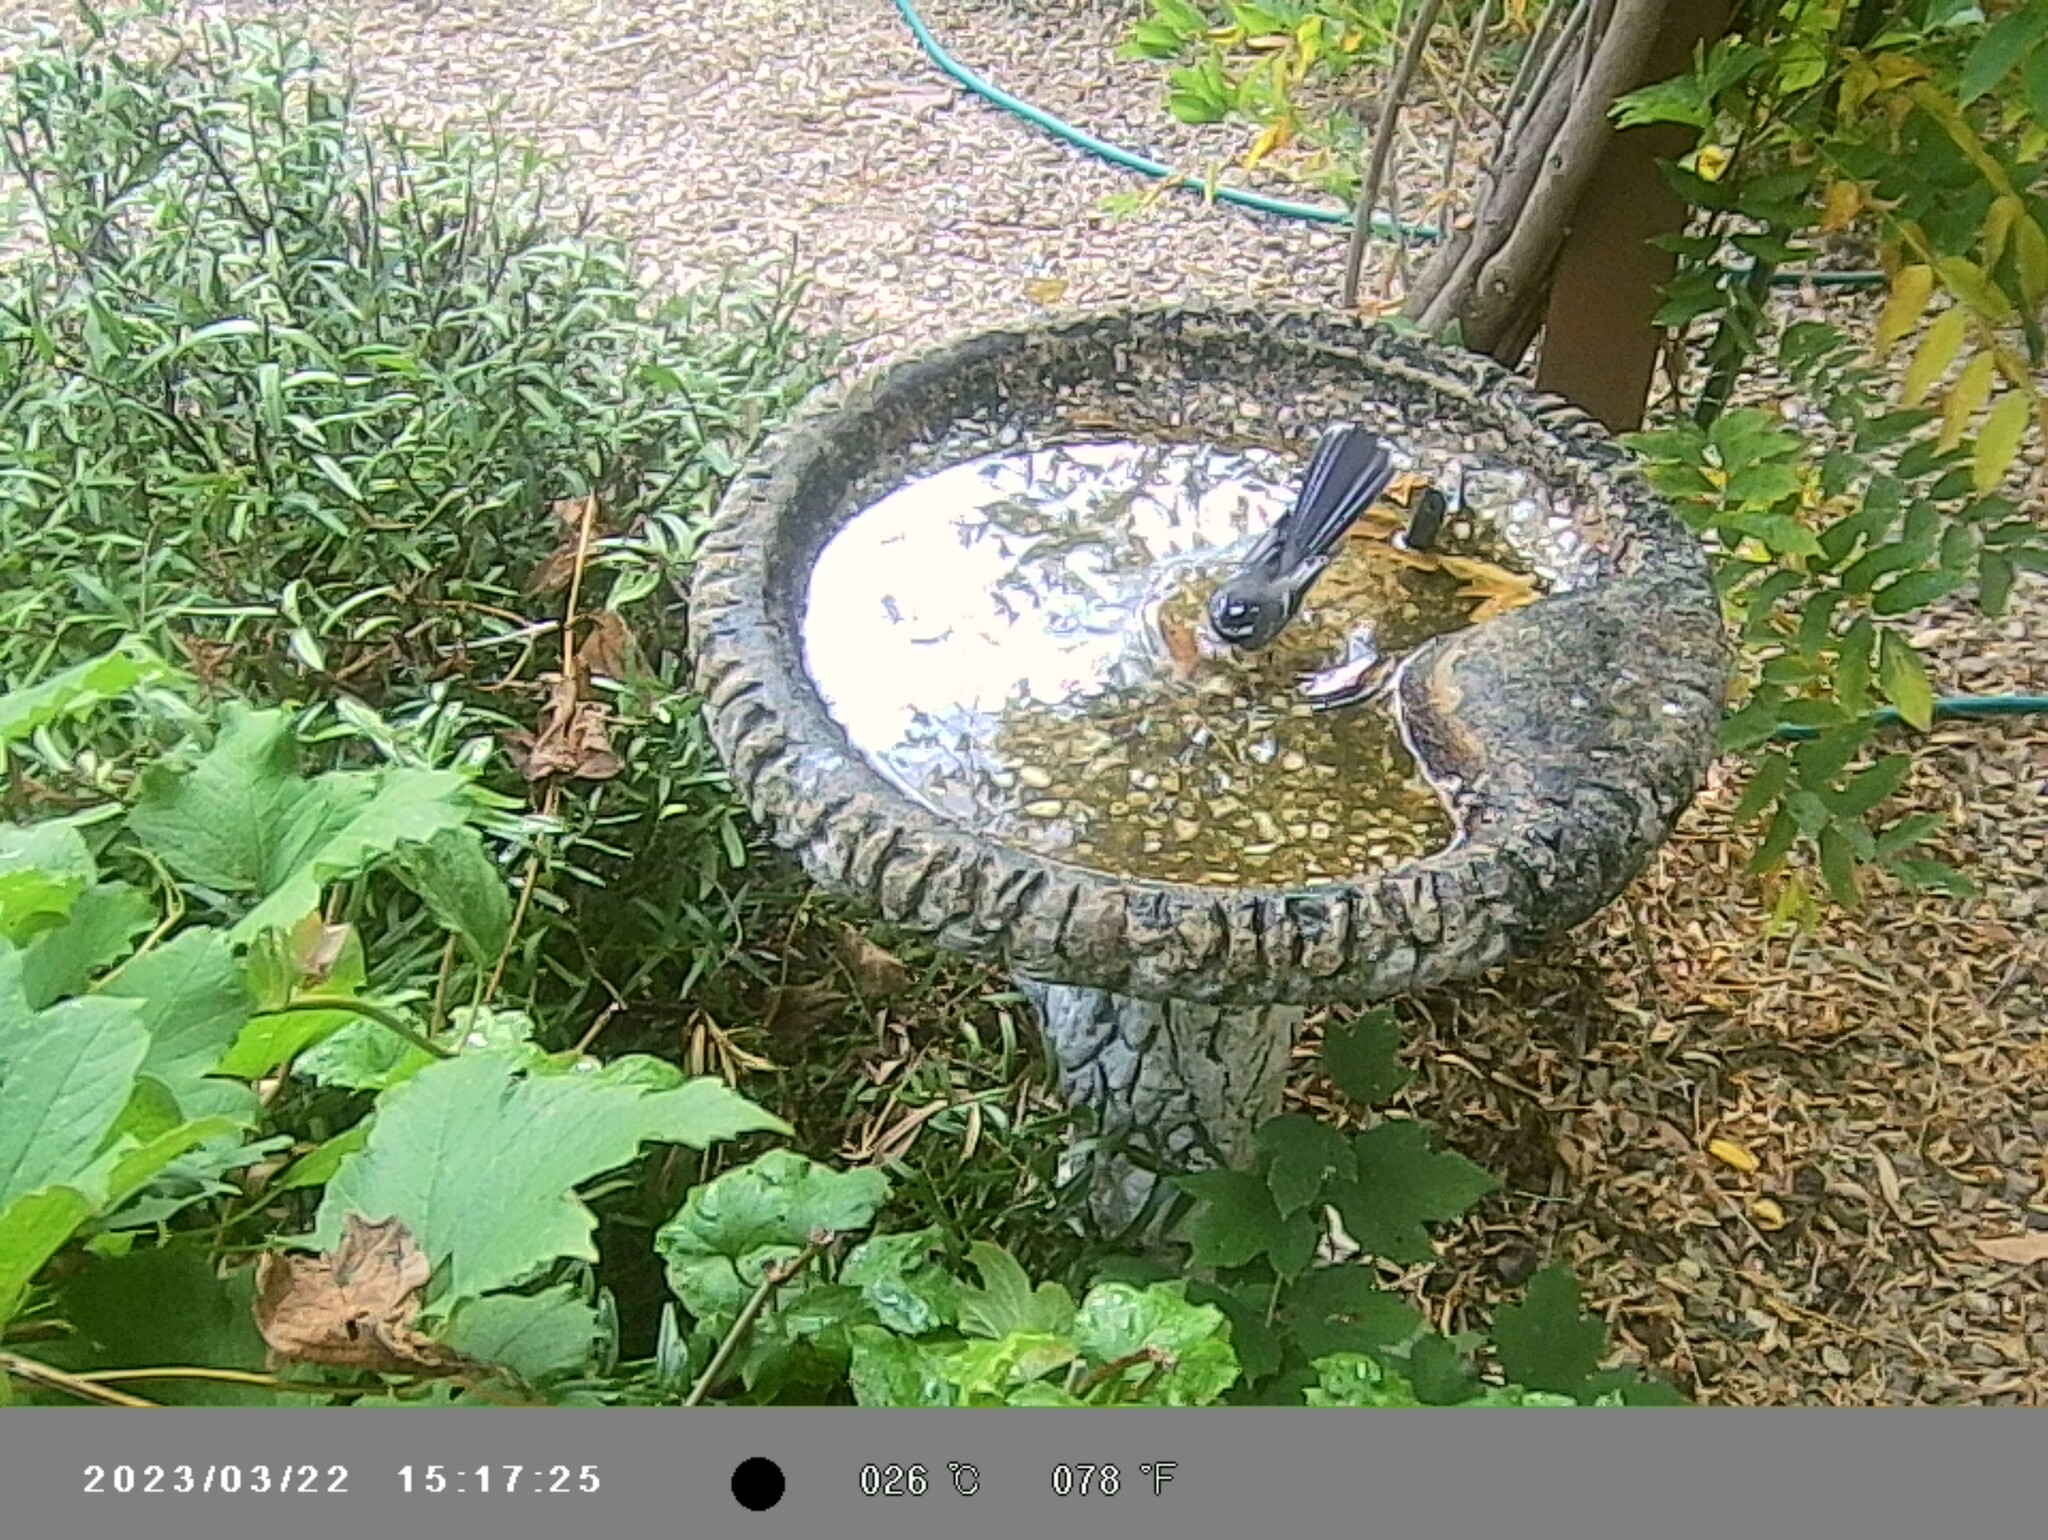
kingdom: Animalia
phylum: Chordata
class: Aves
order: Passeriformes
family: Rhipiduridae
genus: Rhipidura
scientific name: Rhipidura albiscapa
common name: Grey fantail
